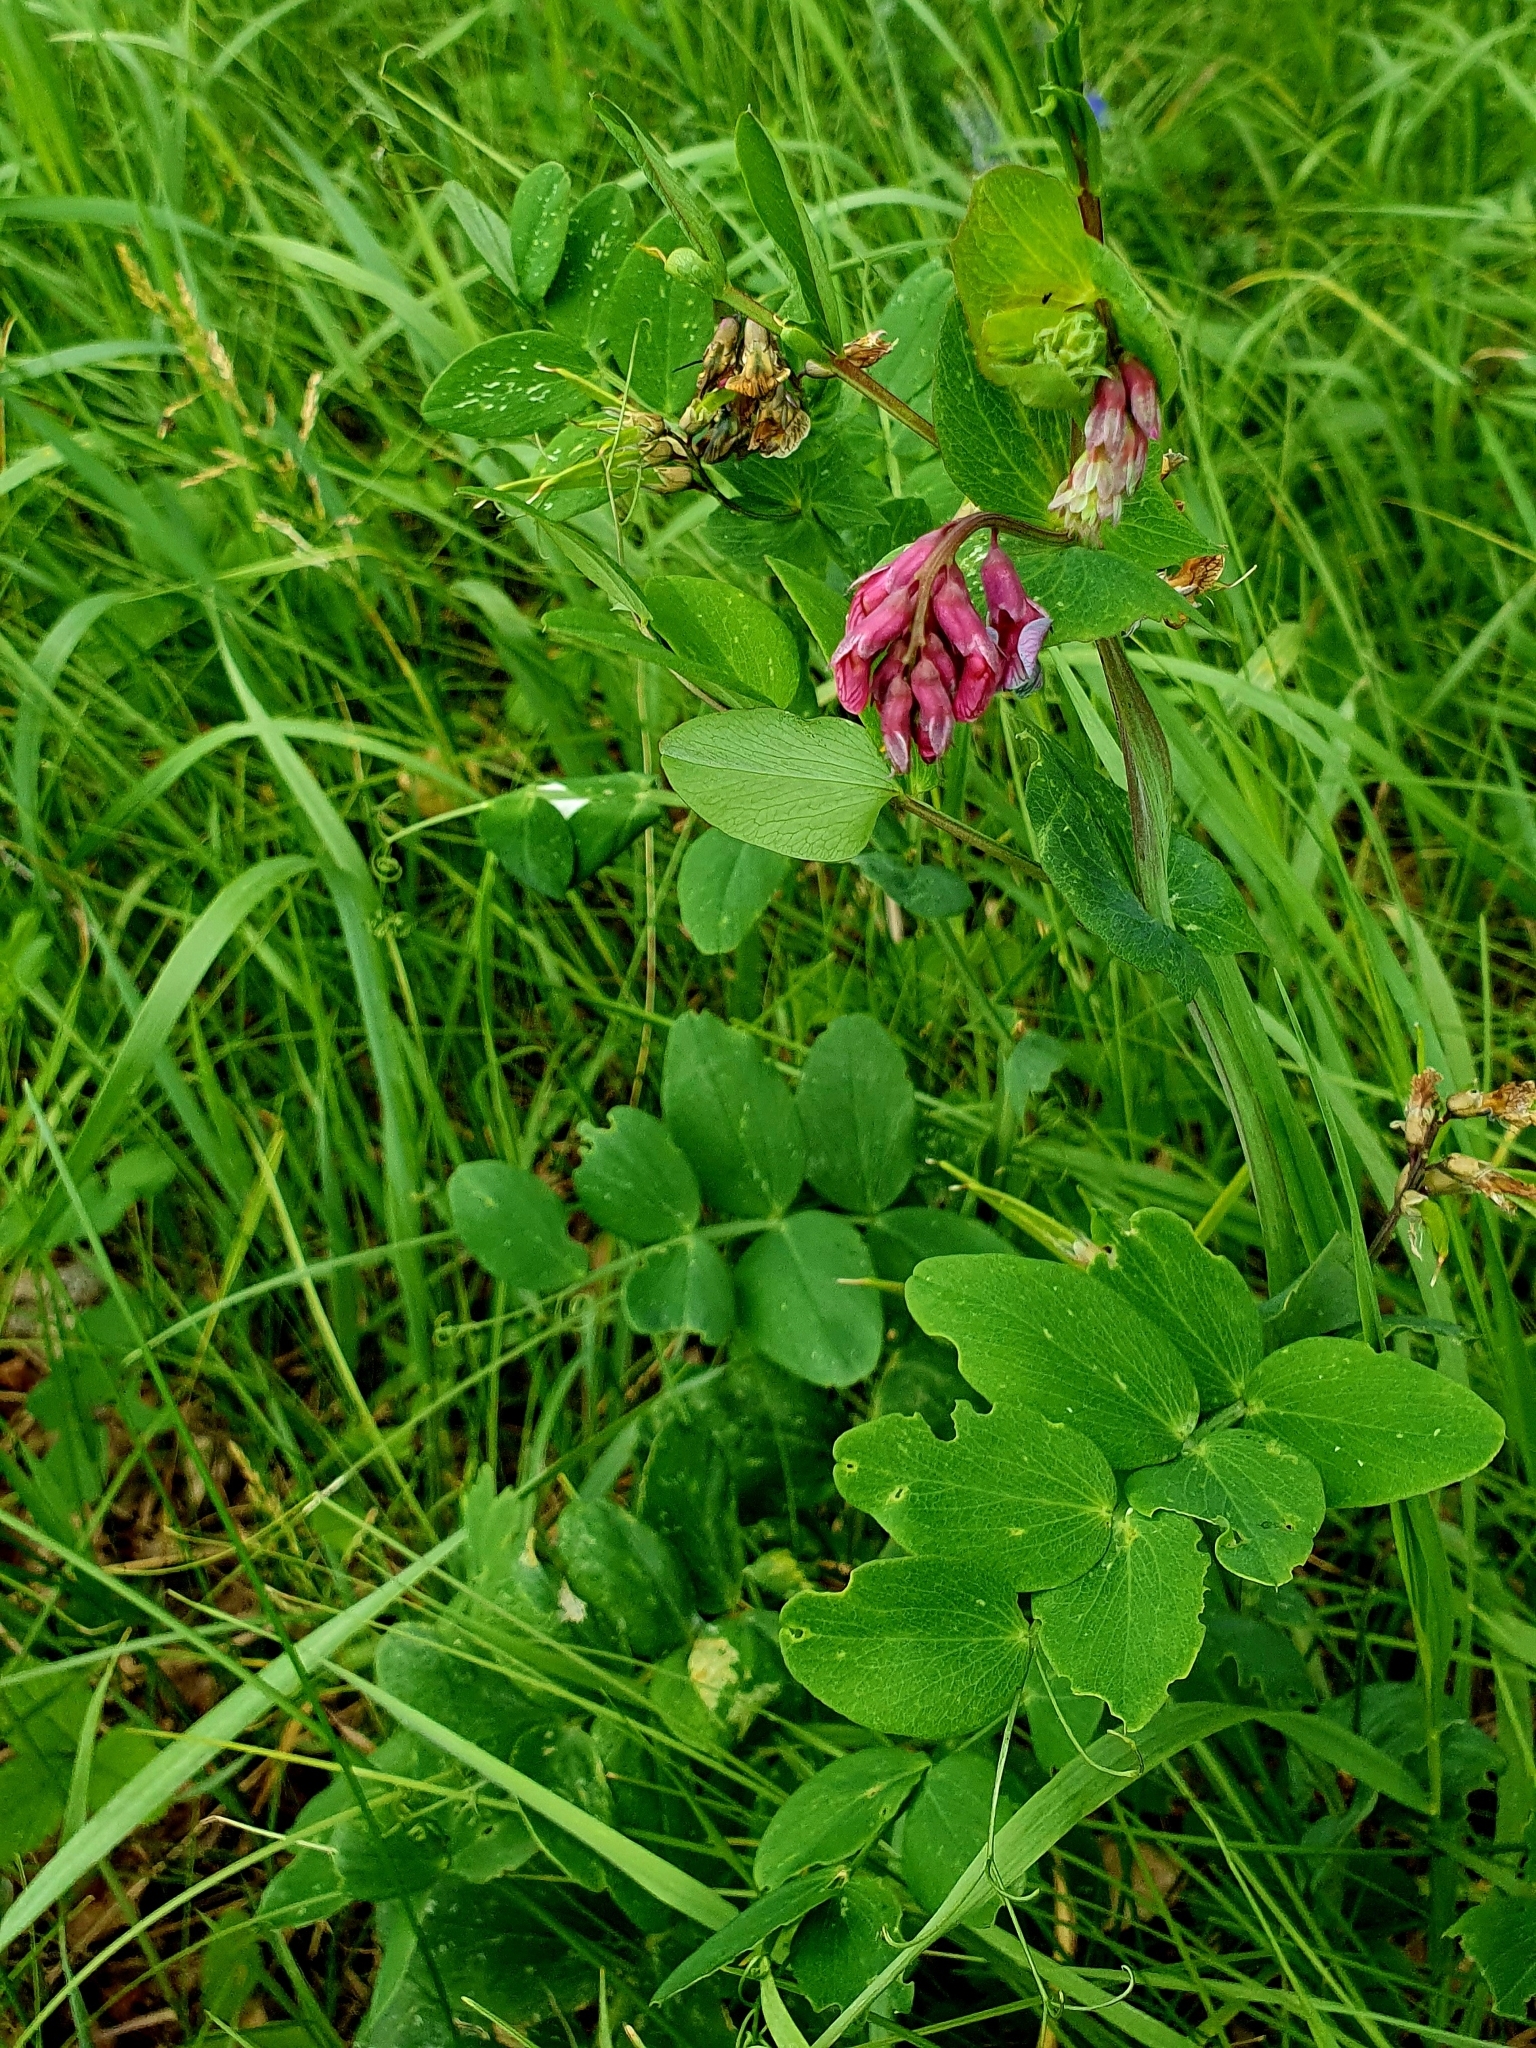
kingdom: Plantae
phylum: Tracheophyta
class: Magnoliopsida
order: Fabales
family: Fabaceae
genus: Lathyrus
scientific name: Lathyrus pisiformis
